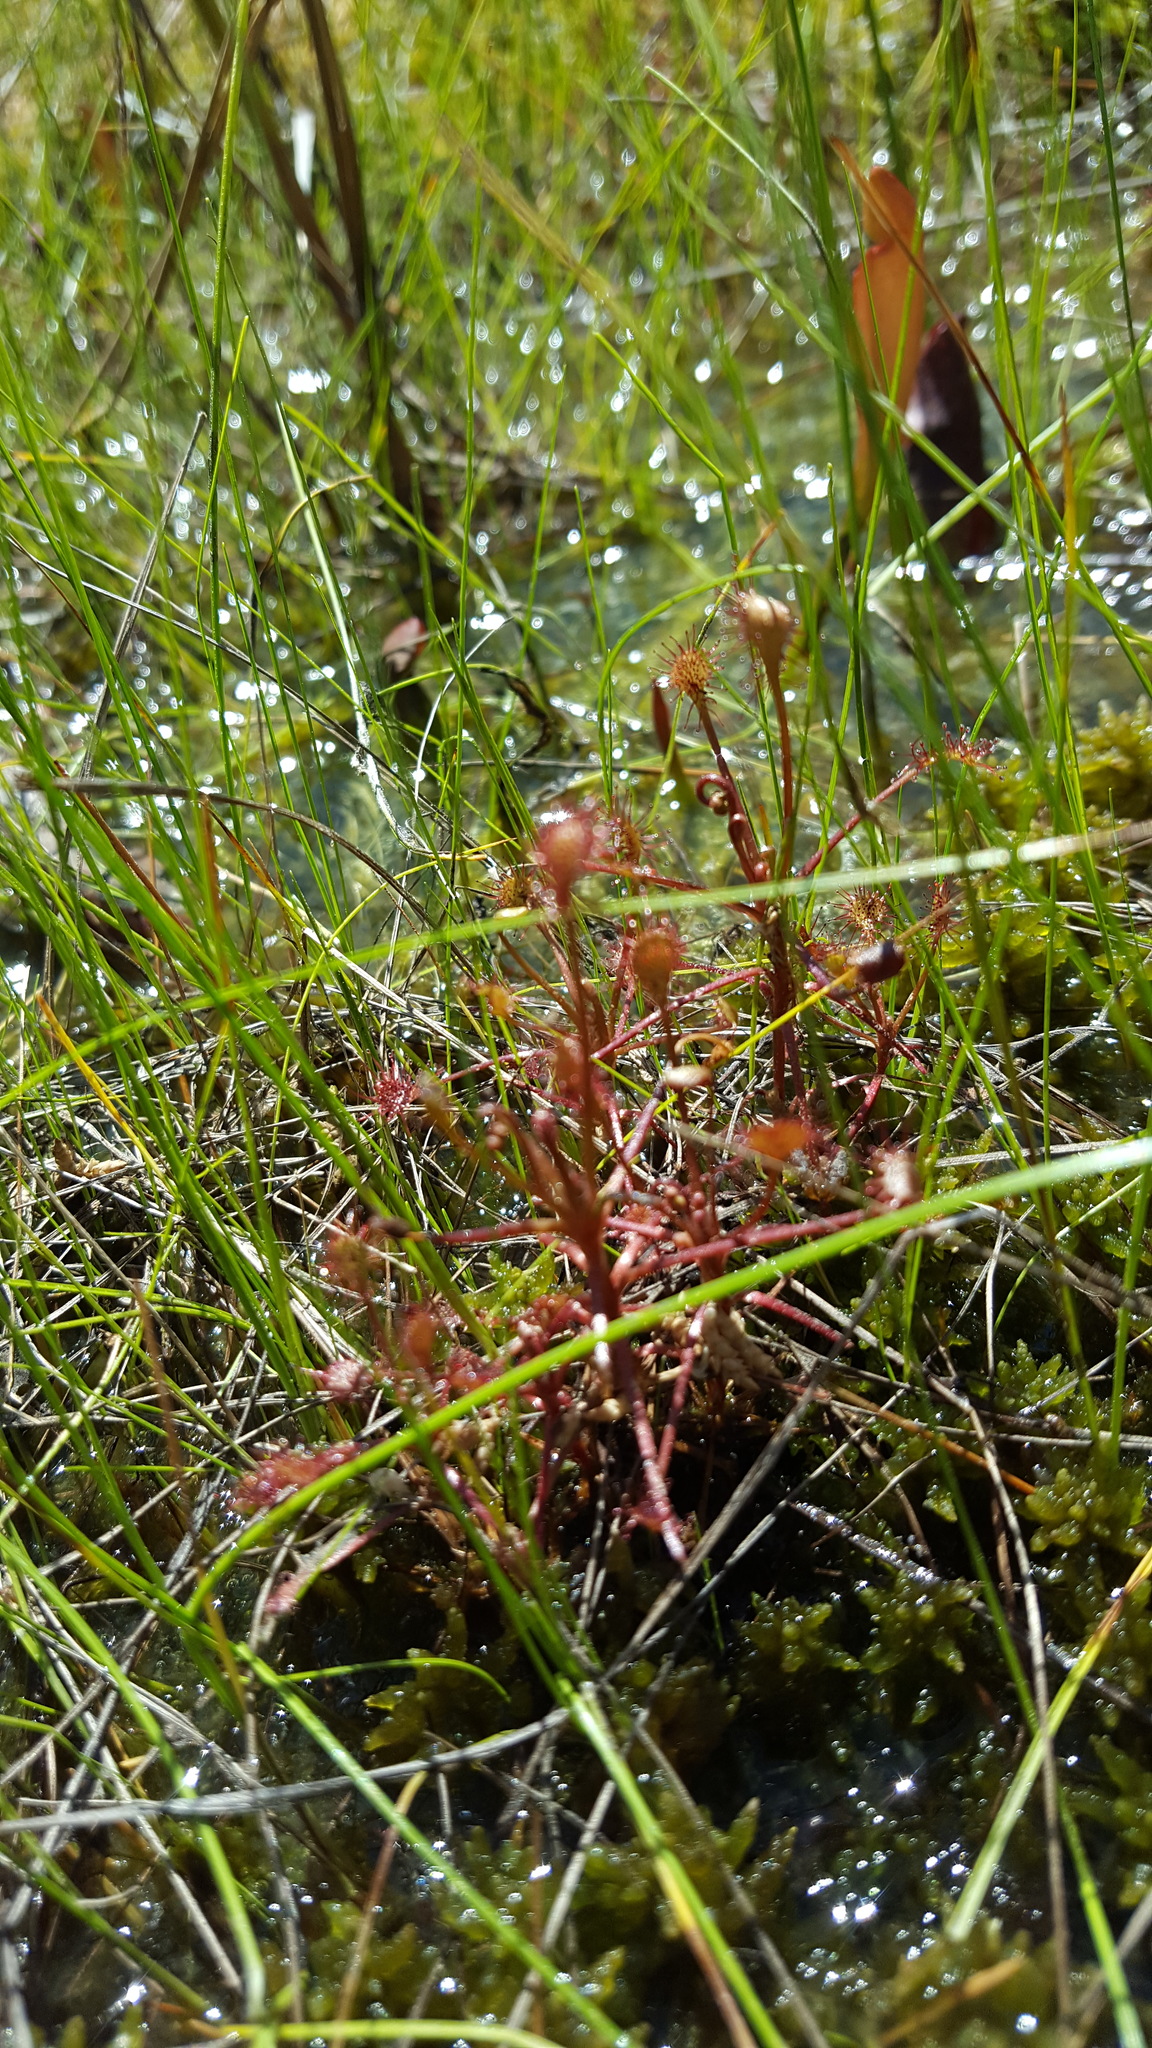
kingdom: Plantae
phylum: Tracheophyta
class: Magnoliopsida
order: Caryophyllales
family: Droseraceae
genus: Drosera
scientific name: Drosera intermedia
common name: Oblong-leaved sundew
